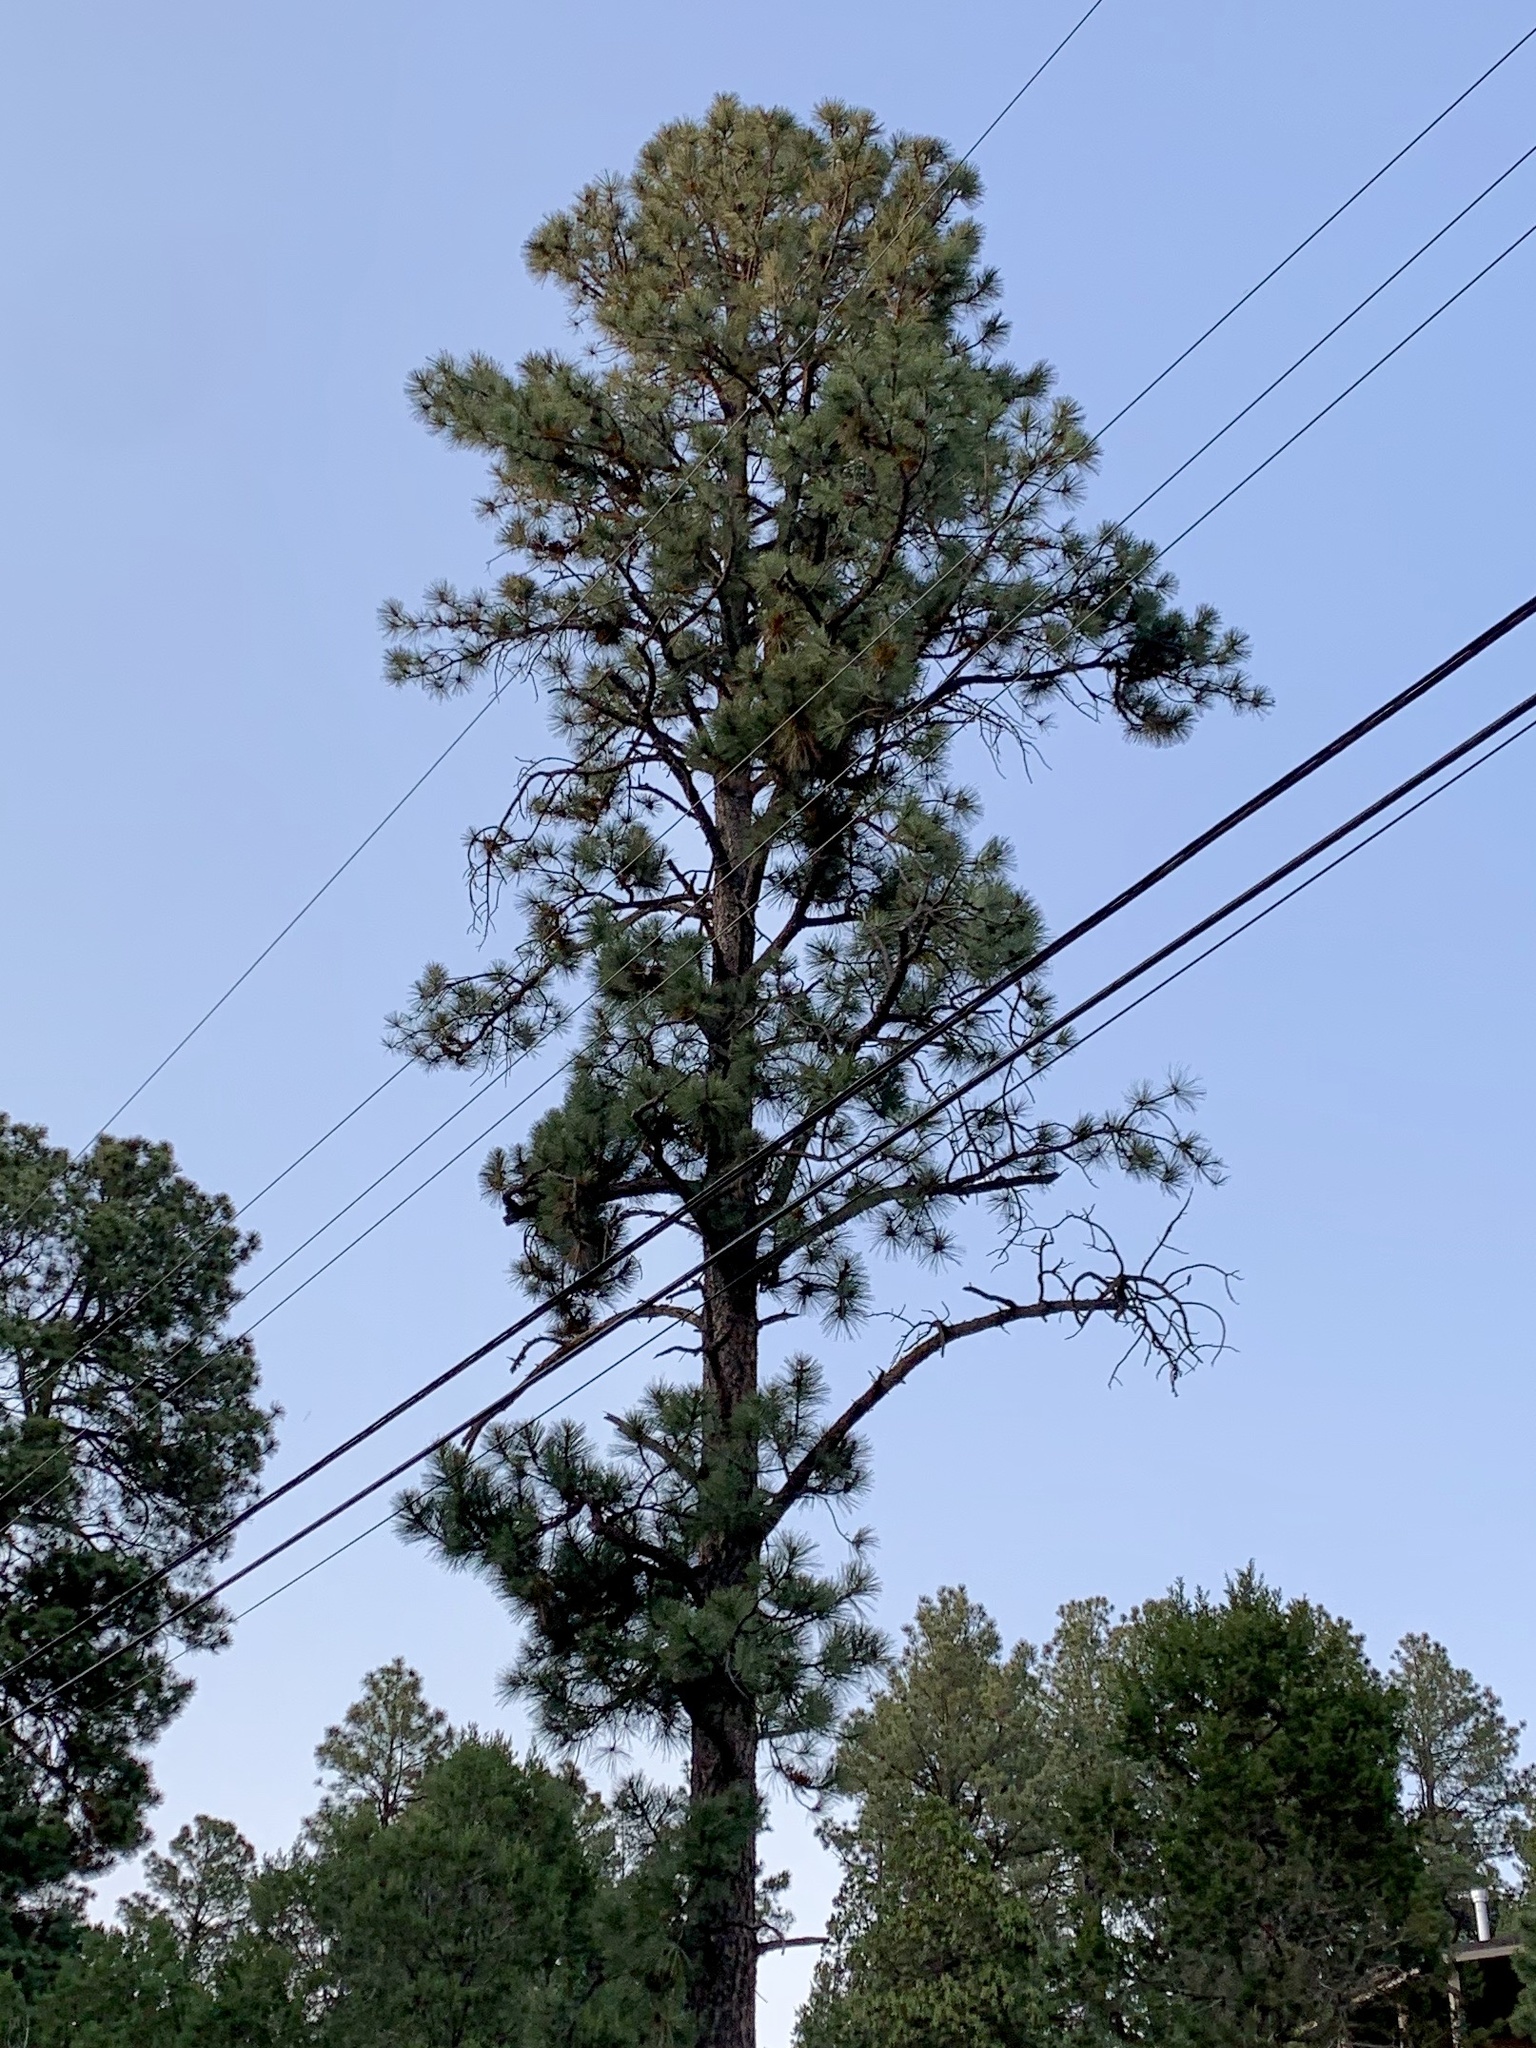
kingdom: Plantae
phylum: Tracheophyta
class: Pinopsida
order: Pinales
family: Pinaceae
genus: Pinus
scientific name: Pinus ponderosa
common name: Western yellow-pine
